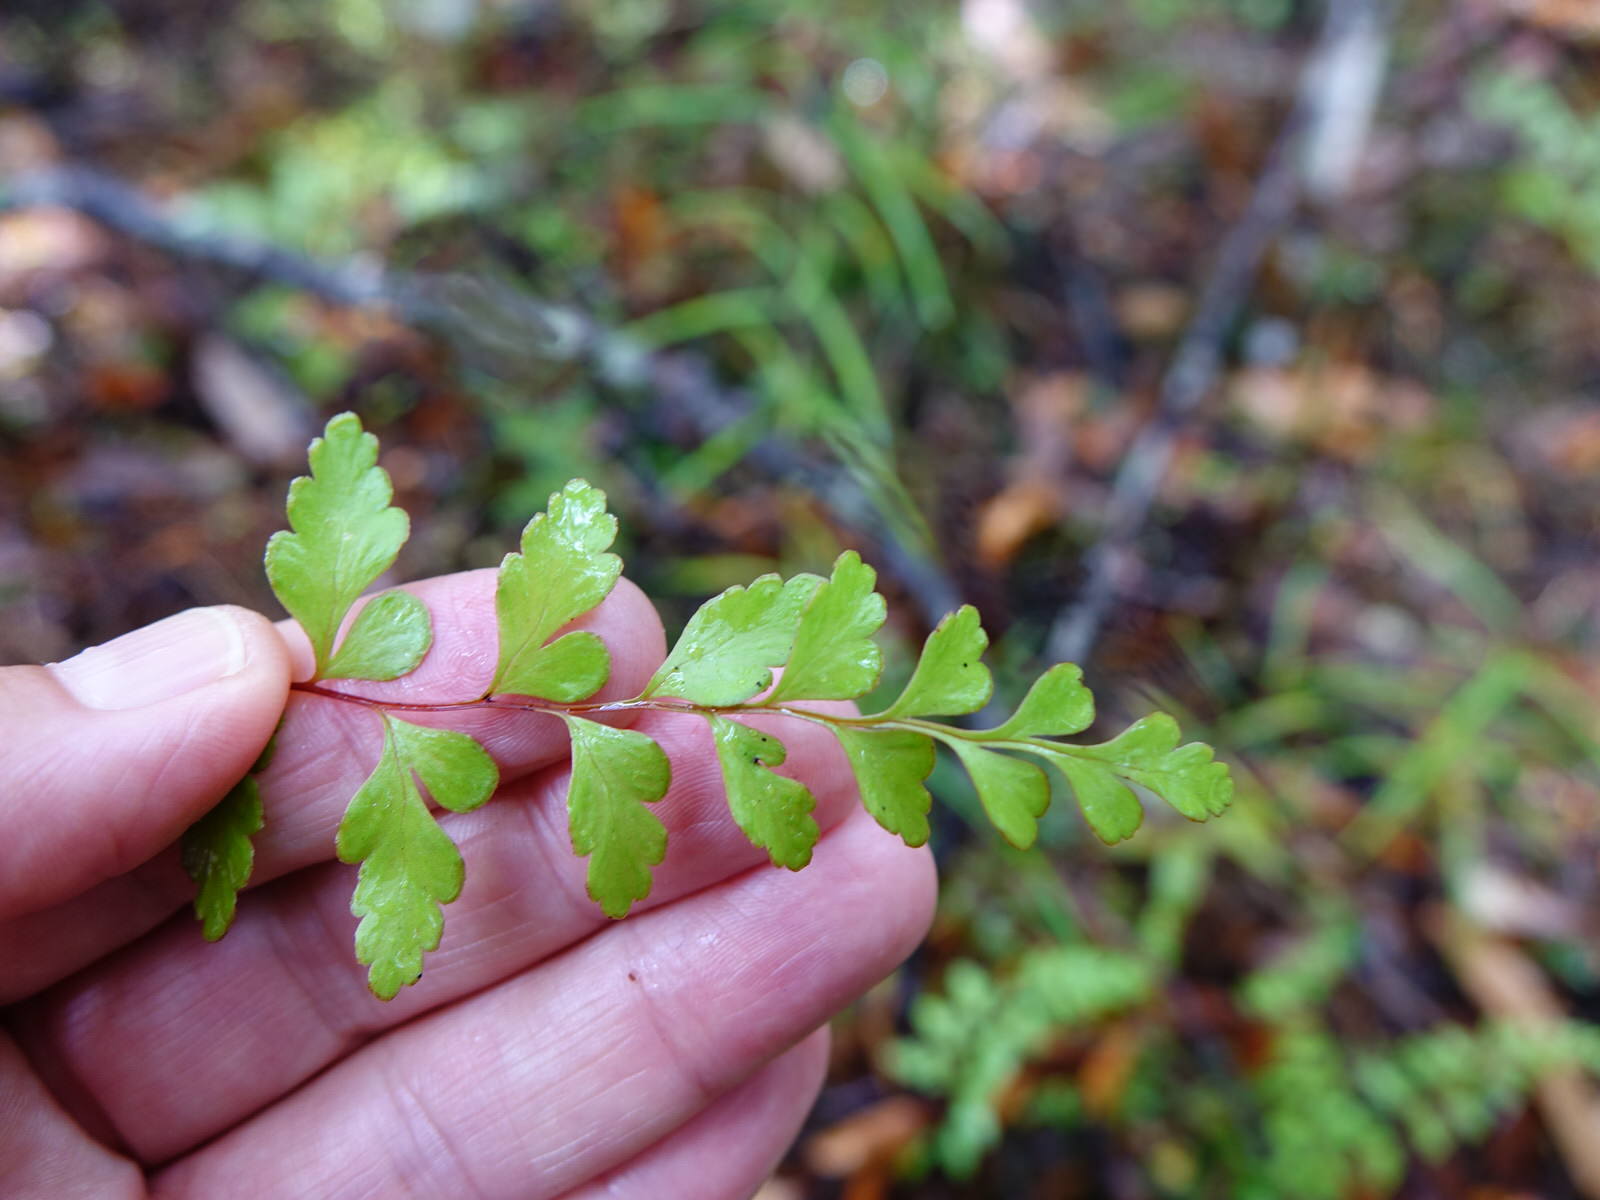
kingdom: Plantae
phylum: Tracheophyta
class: Polypodiopsida
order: Polypodiales
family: Lindsaeaceae
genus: Lindsaea
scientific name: Lindsaea trichomanoides
